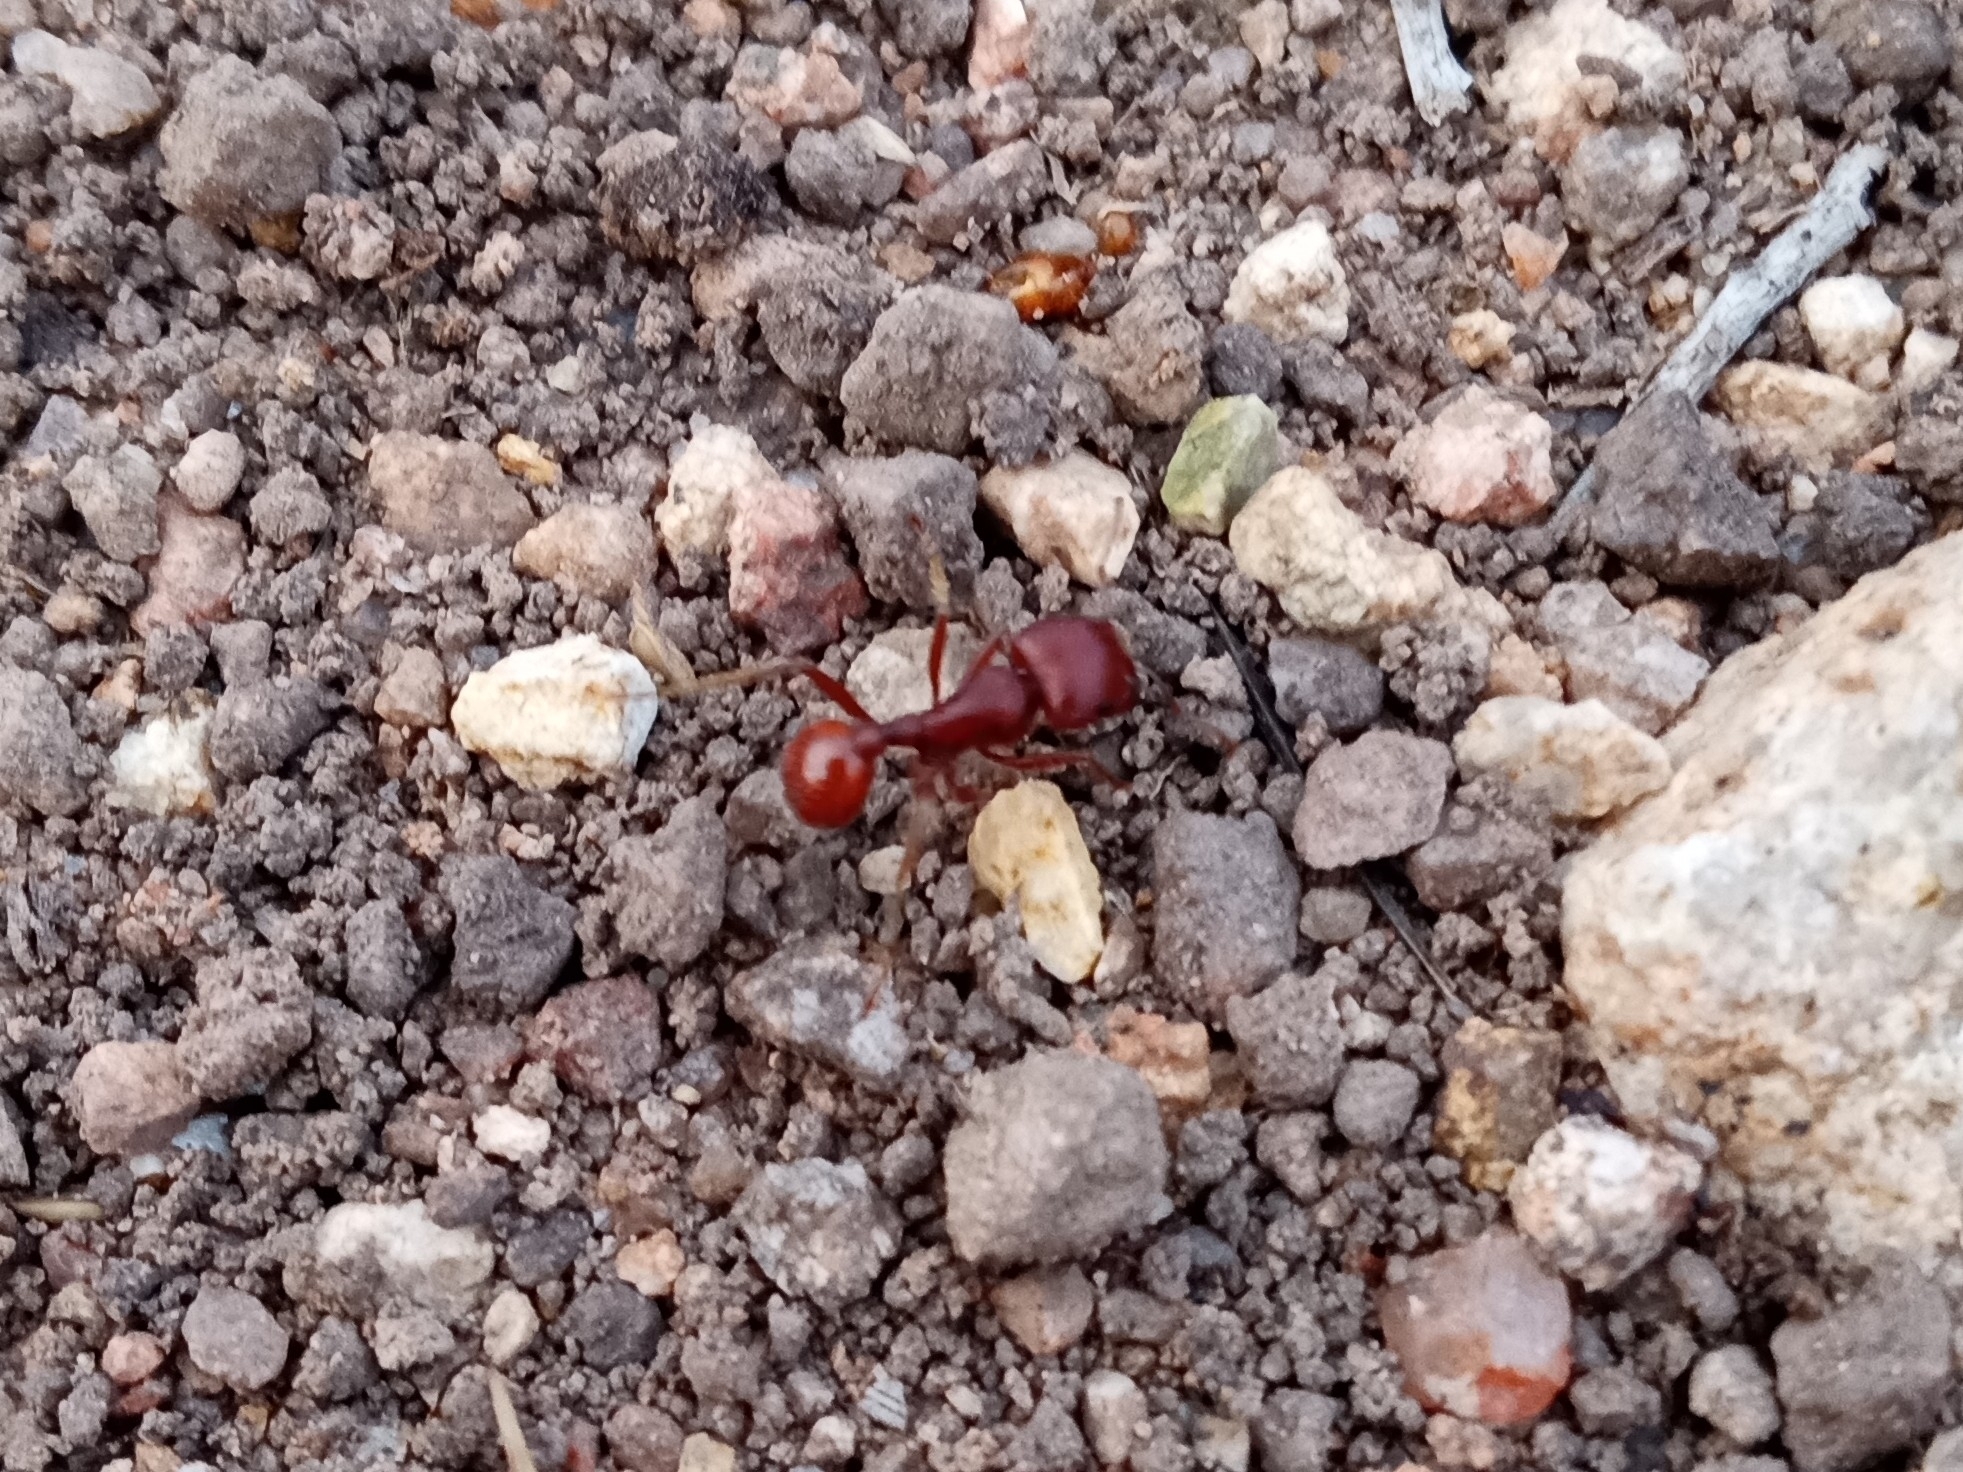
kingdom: Animalia
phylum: Arthropoda
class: Insecta
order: Hymenoptera
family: Formicidae
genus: Pogonomyrmex
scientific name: Pogonomyrmex barbatus
